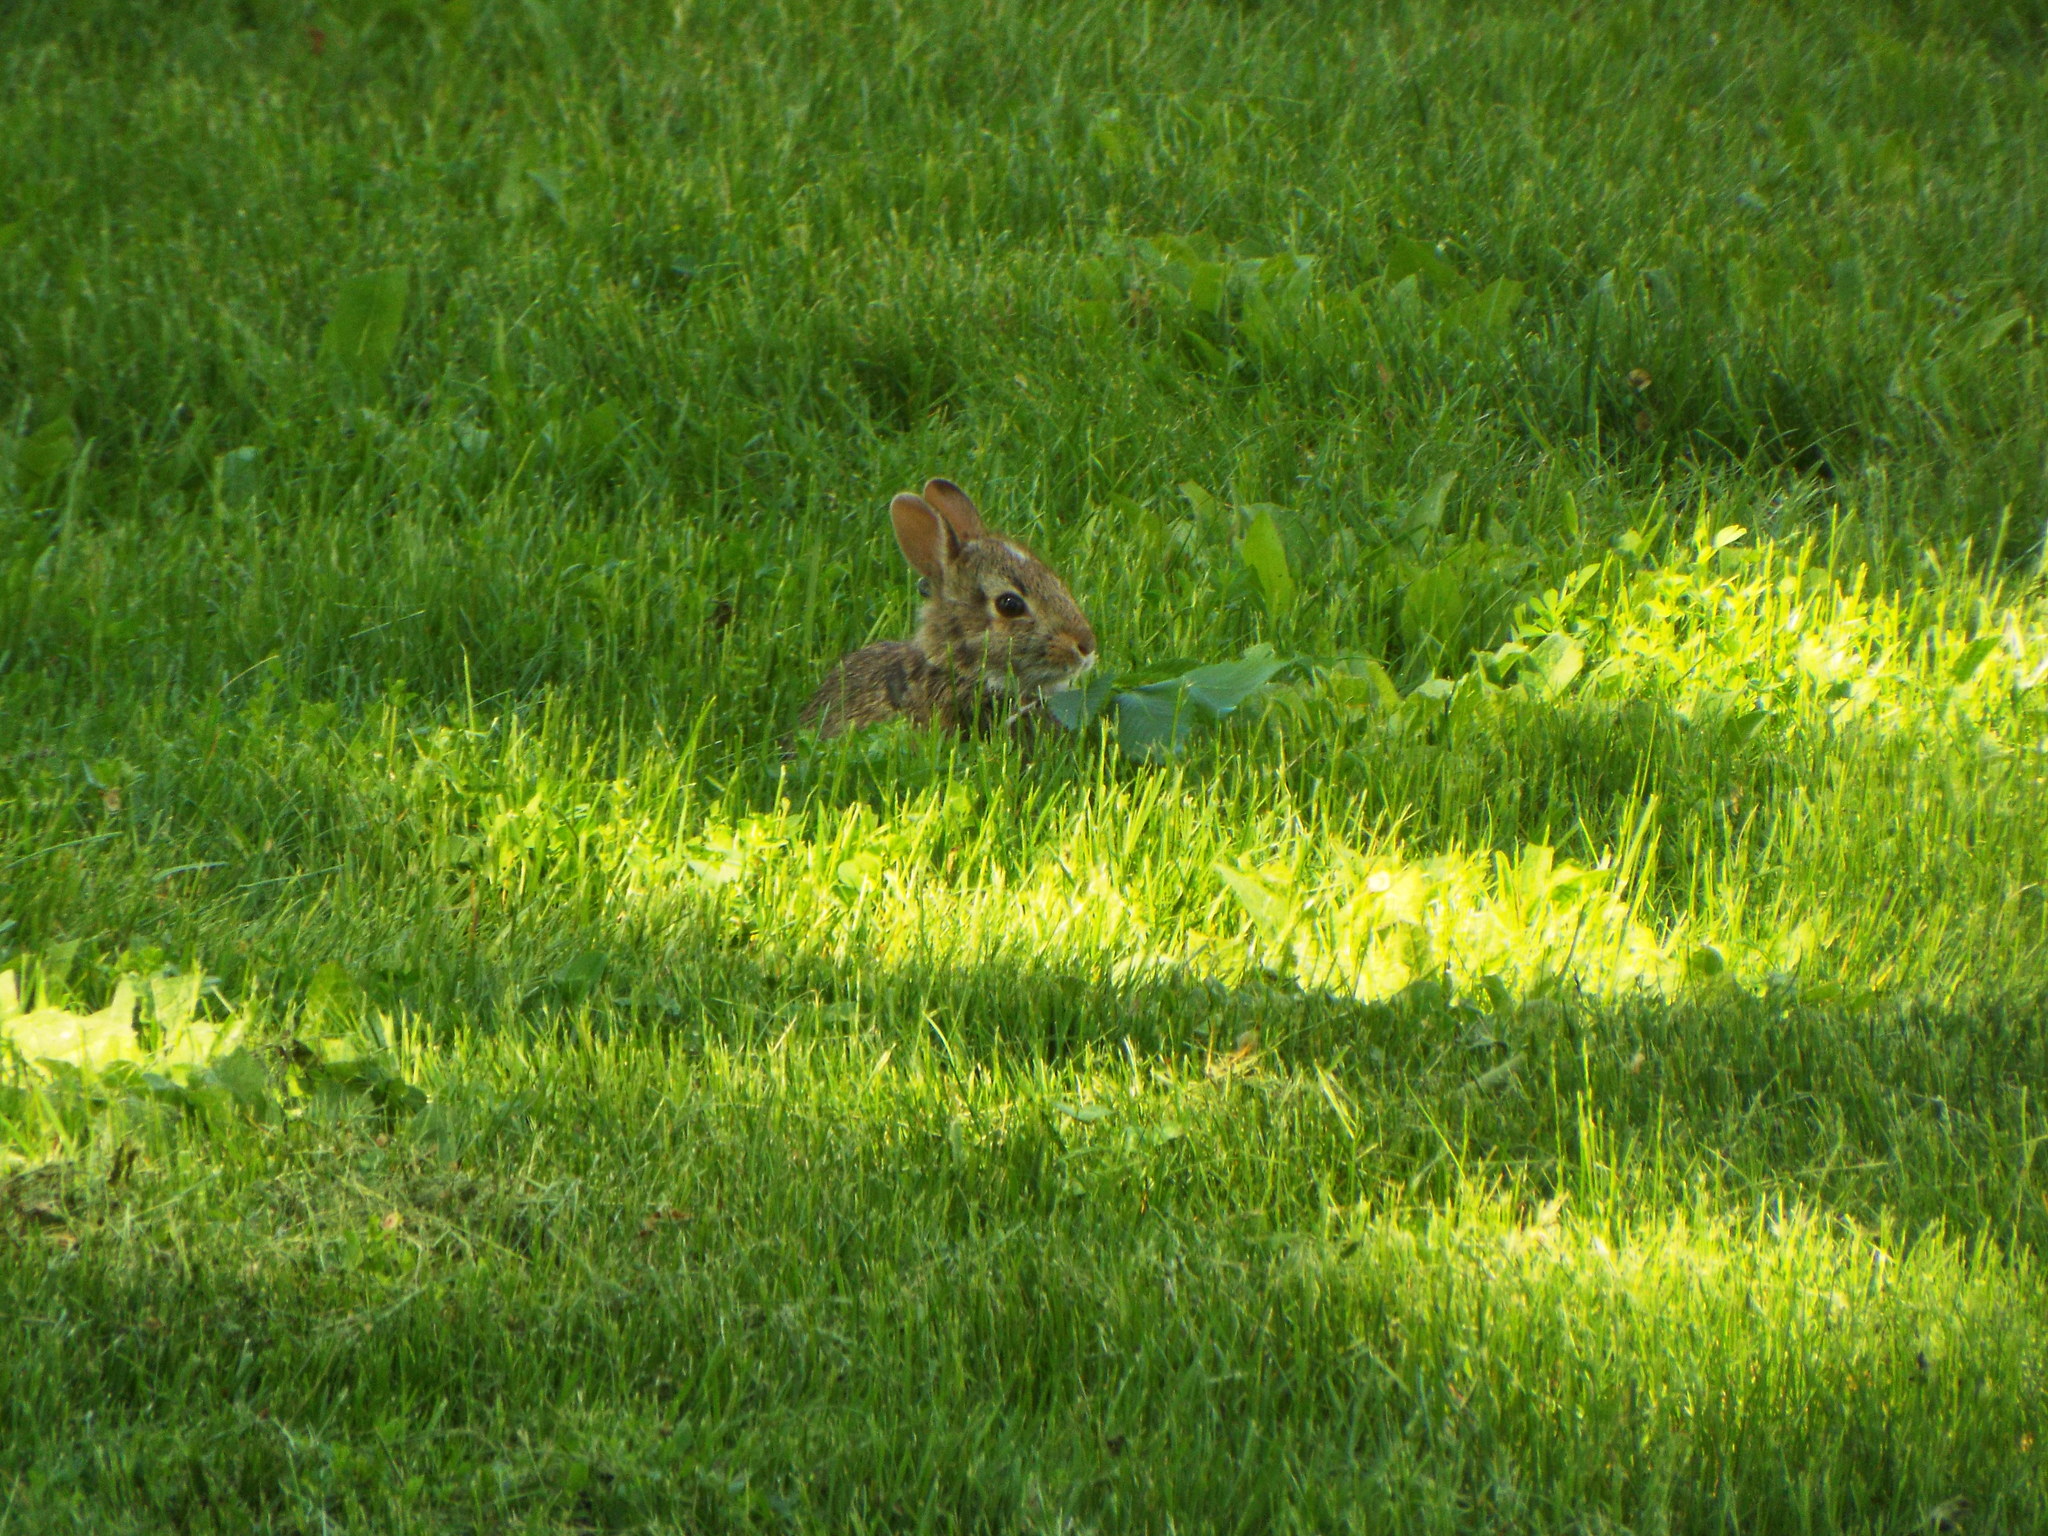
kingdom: Animalia
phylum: Chordata
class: Mammalia
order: Lagomorpha
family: Leporidae
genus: Sylvilagus
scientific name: Sylvilagus floridanus
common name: Eastern cottontail
